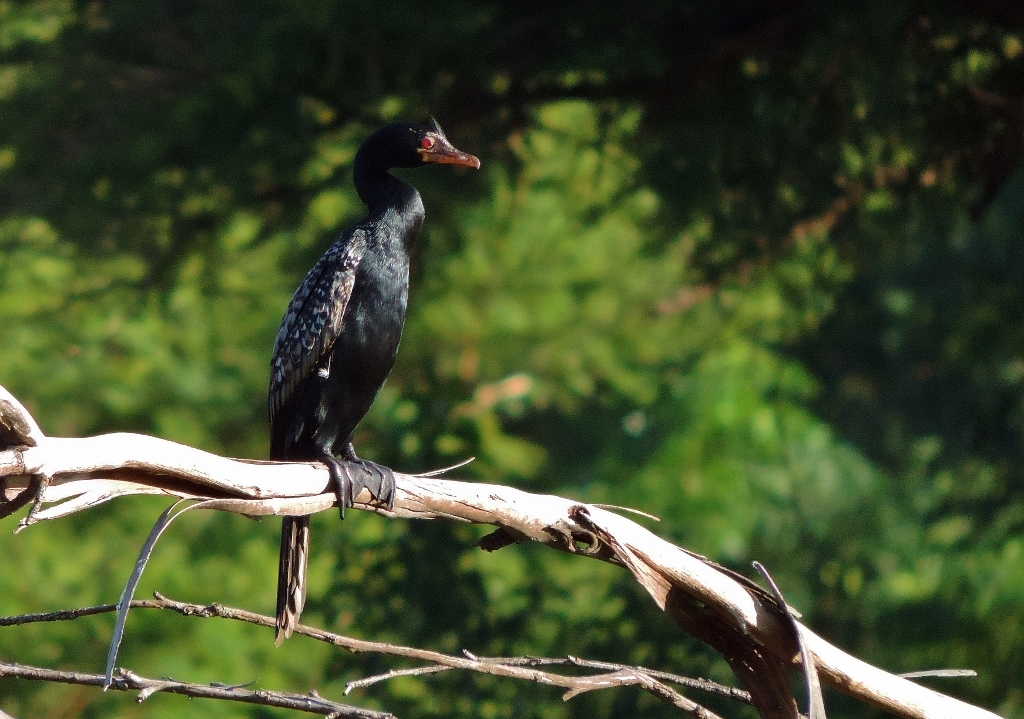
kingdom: Animalia
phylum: Chordata
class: Aves
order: Suliformes
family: Phalacrocoracidae
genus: Microcarbo
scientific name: Microcarbo africanus
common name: Long-tailed cormorant
